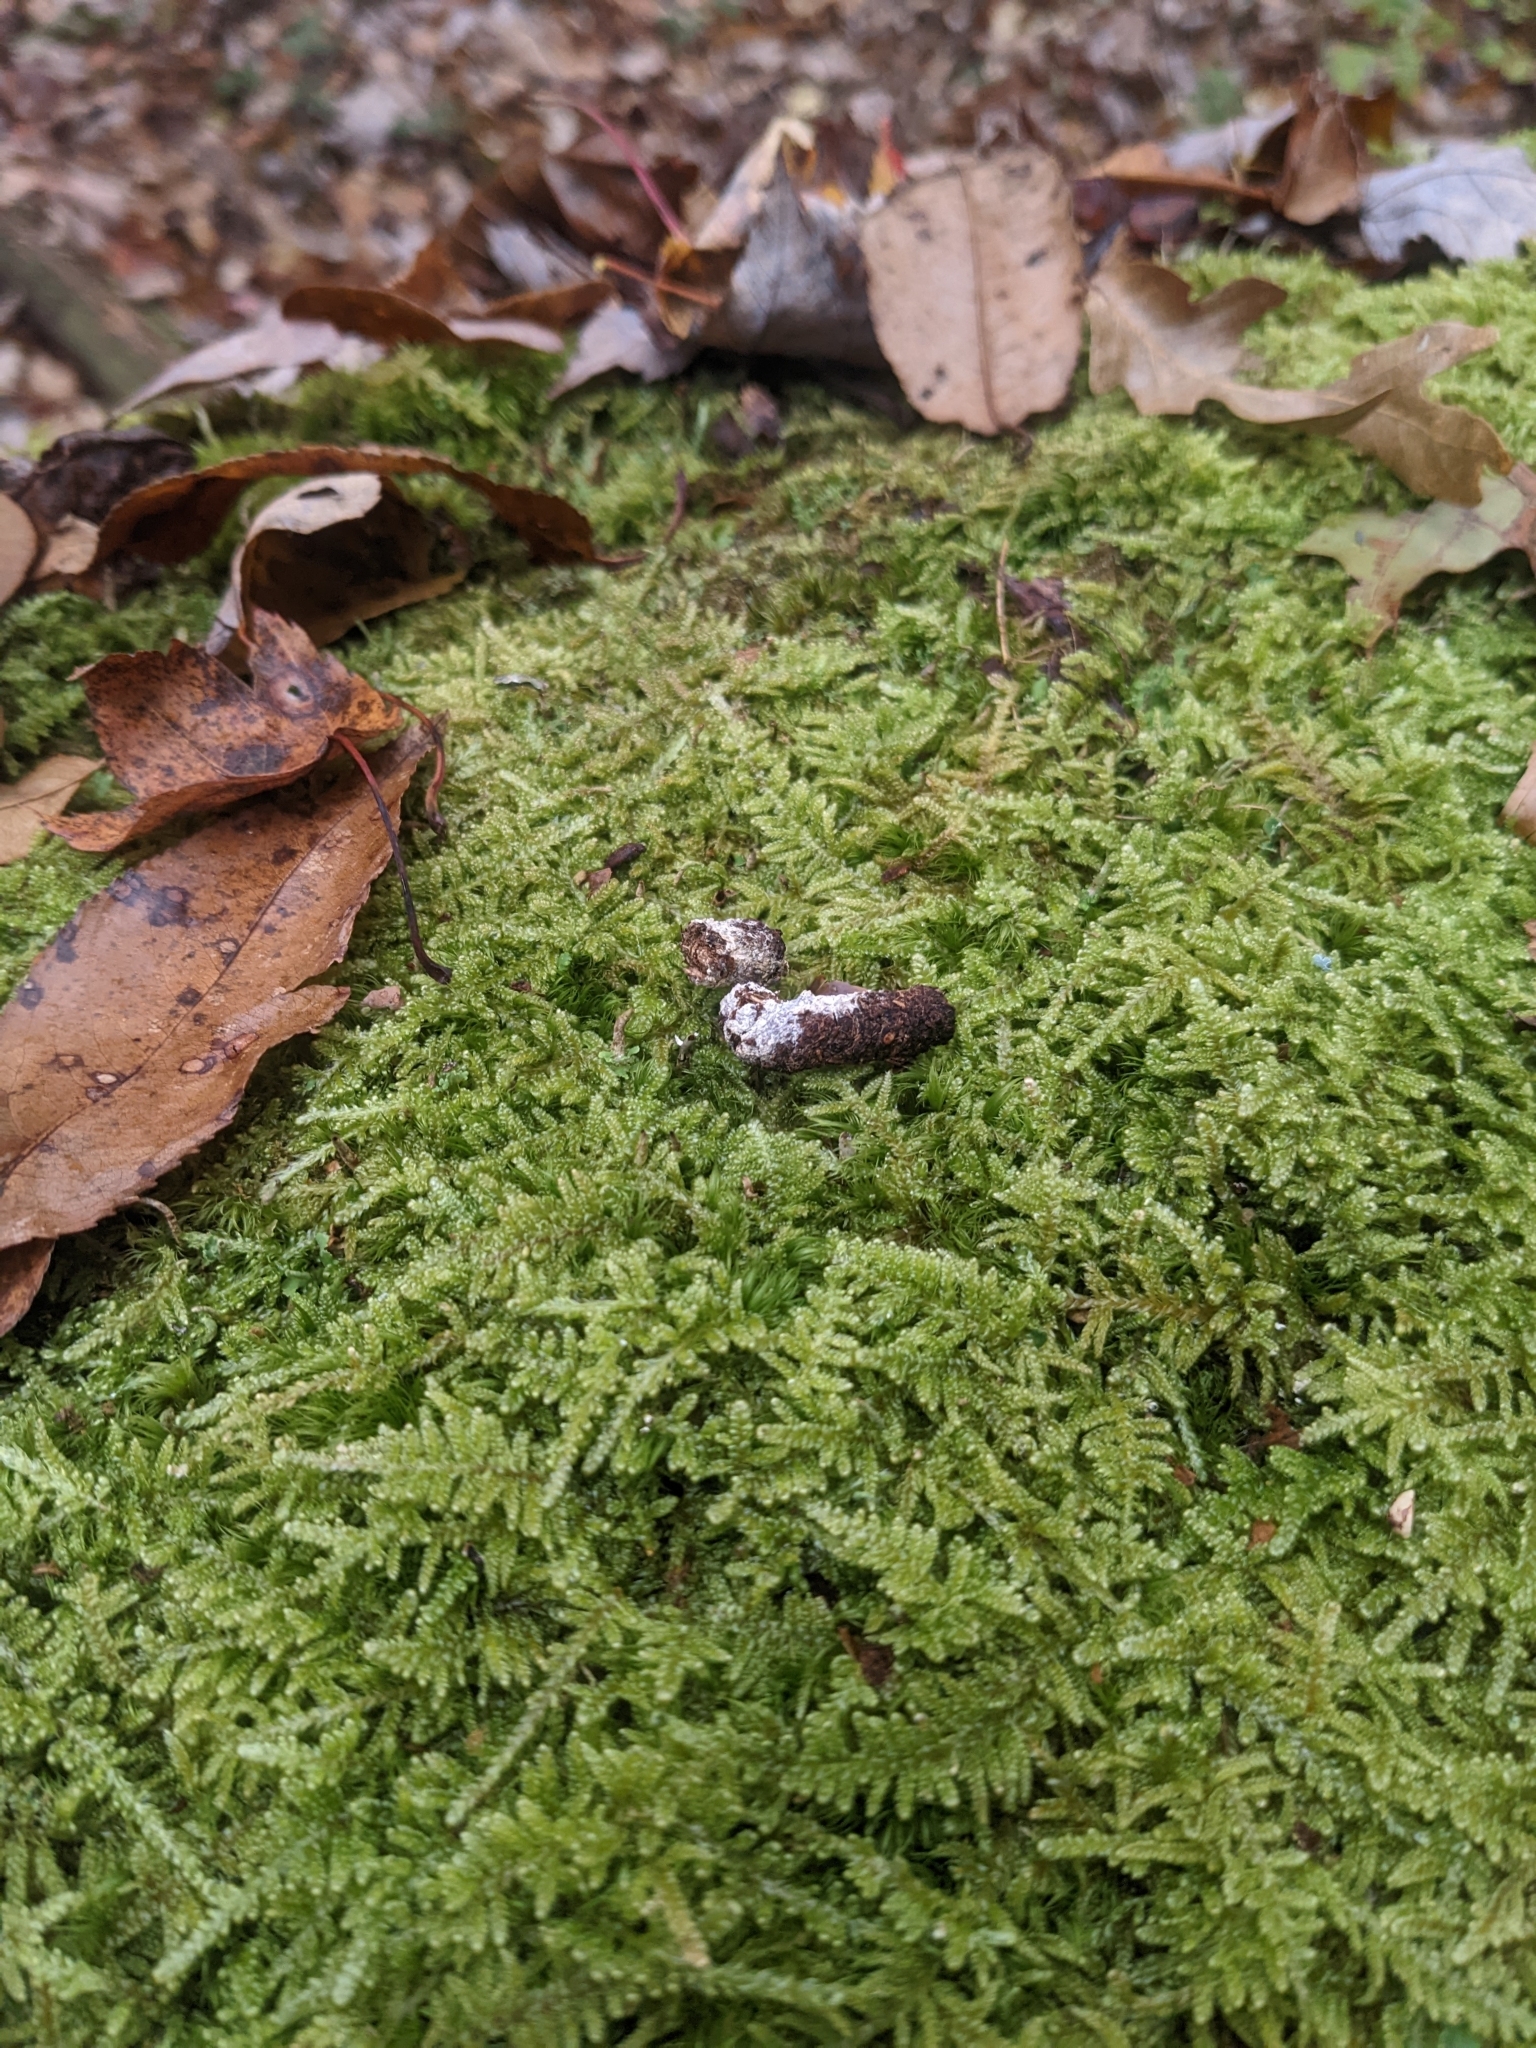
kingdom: Animalia
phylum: Chordata
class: Aves
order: Galliformes
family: Phasianidae
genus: Bonasa
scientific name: Bonasa umbellus
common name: Ruffed grouse
